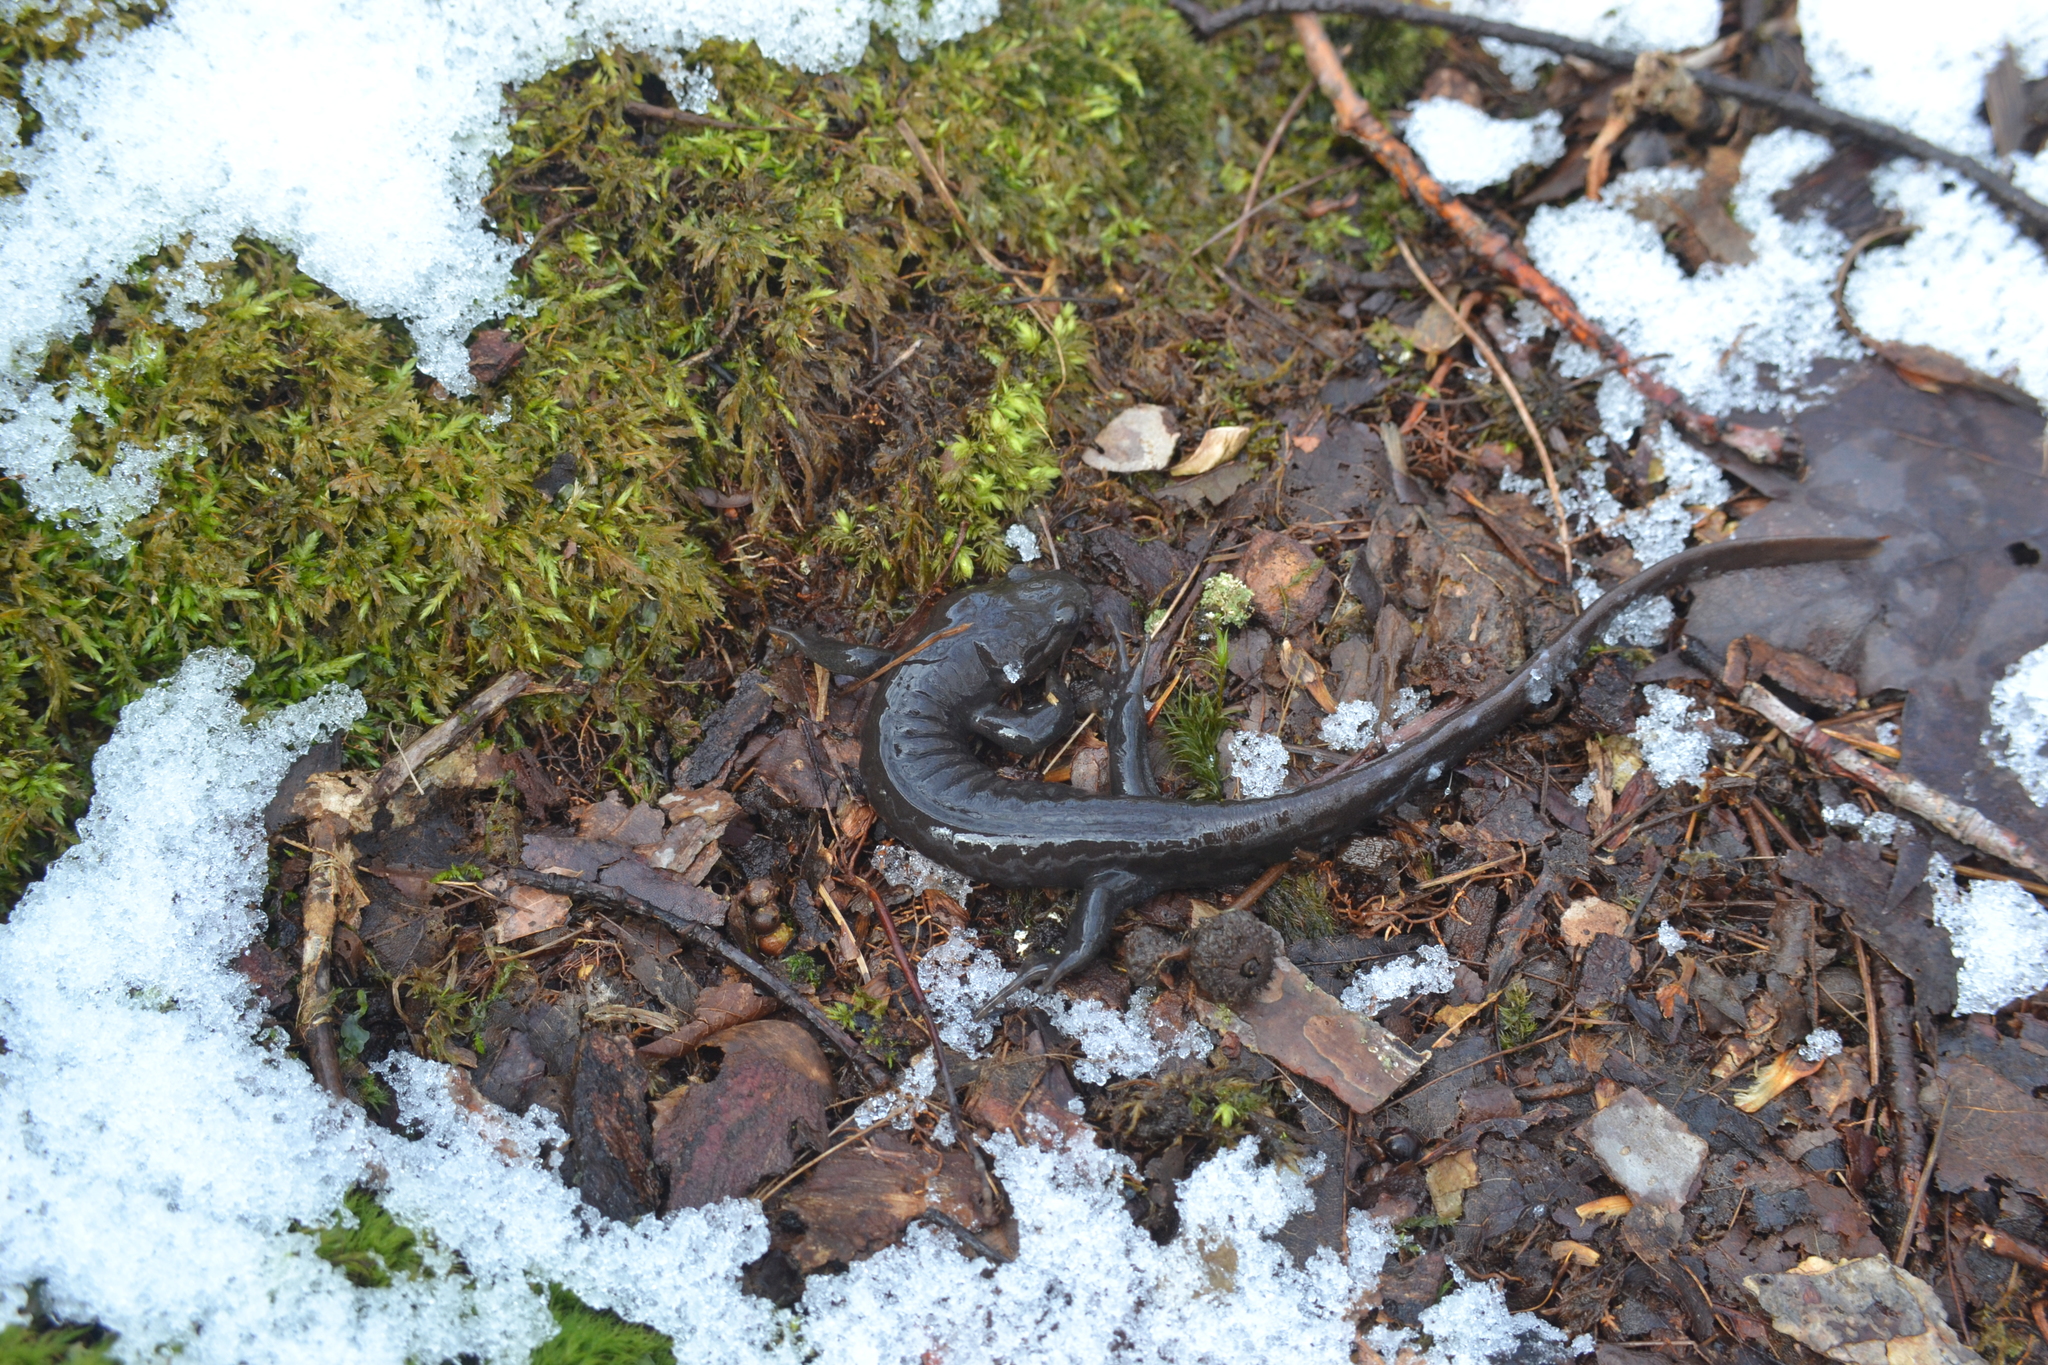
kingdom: Animalia
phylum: Chordata
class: Amphibia
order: Caudata
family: Ambystomatidae
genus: Ambystoma
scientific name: Ambystoma jeffersonianum
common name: Jefferson salamander
